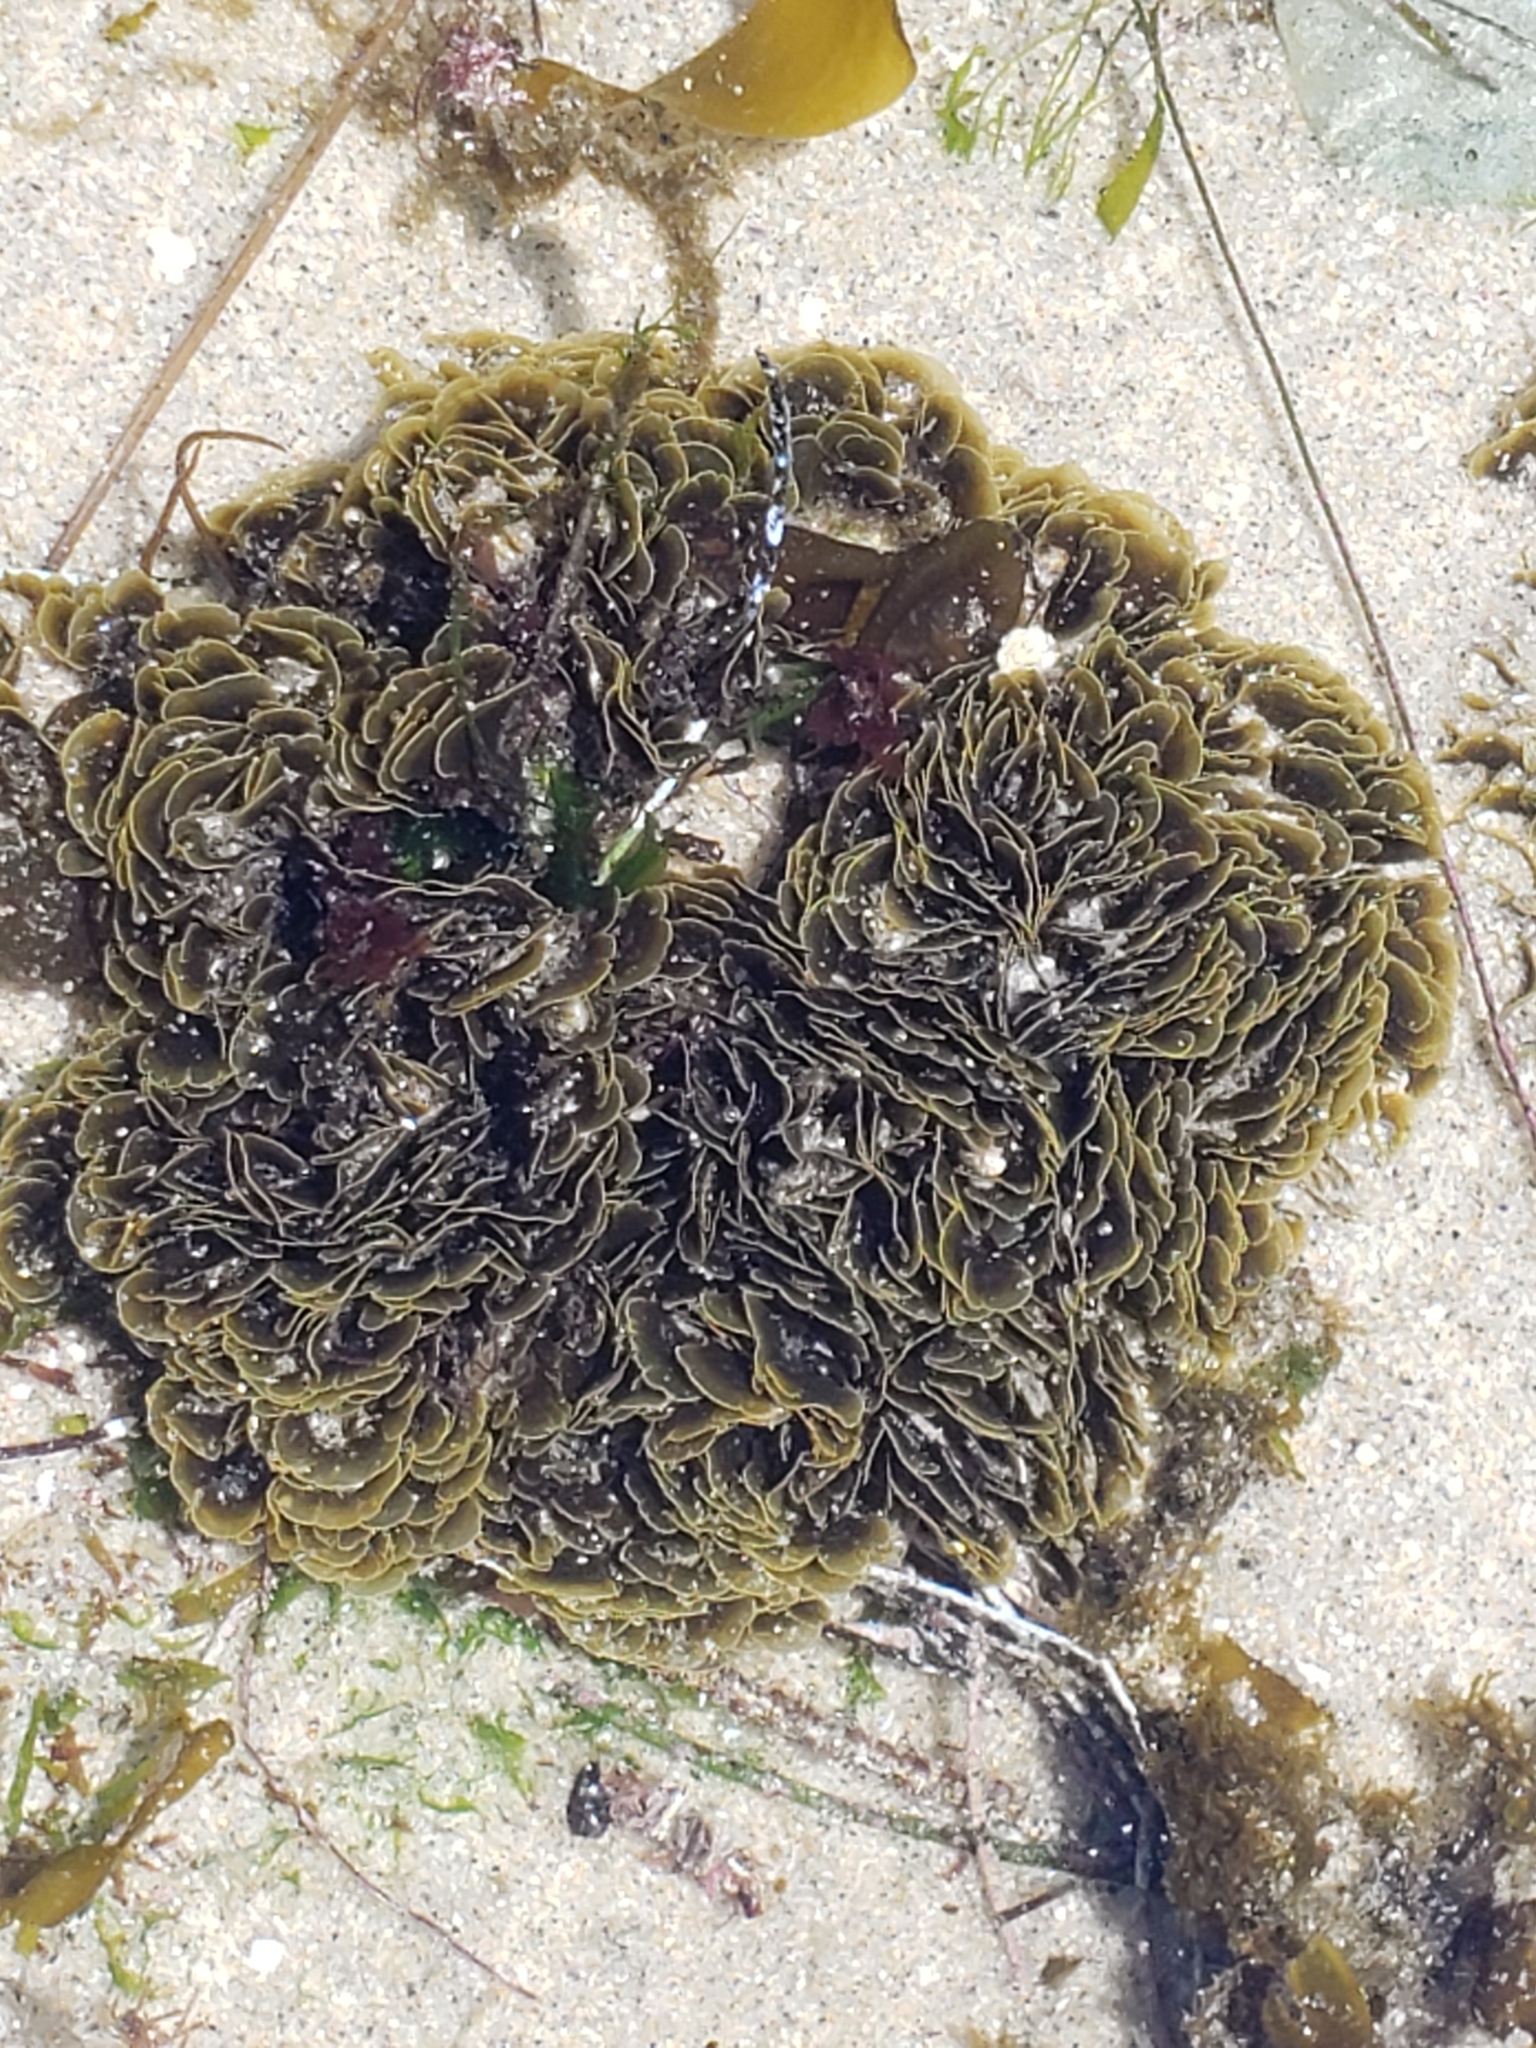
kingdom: Chromista
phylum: Ochrophyta
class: Phaeophyceae
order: Dictyotales
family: Dictyotaceae
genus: Zonaria
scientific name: Zonaria farlowii
